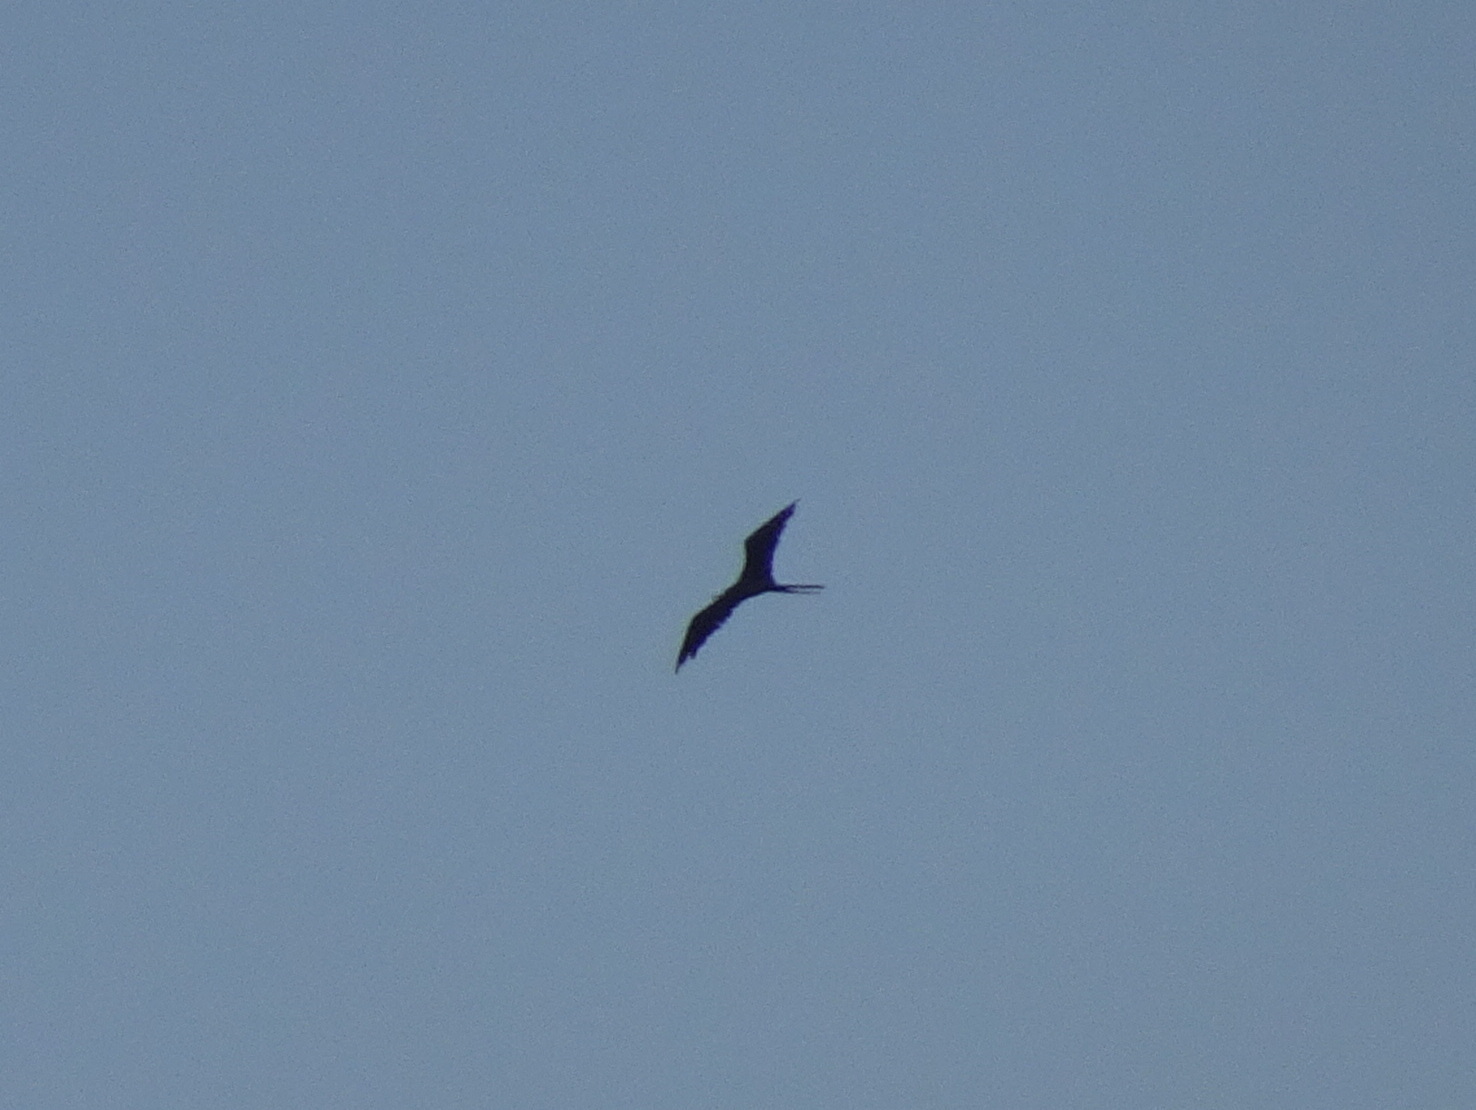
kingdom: Animalia
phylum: Chordata
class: Aves
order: Suliformes
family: Fregatidae
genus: Fregata
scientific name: Fregata magnificens
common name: Magnificent frigatebird
